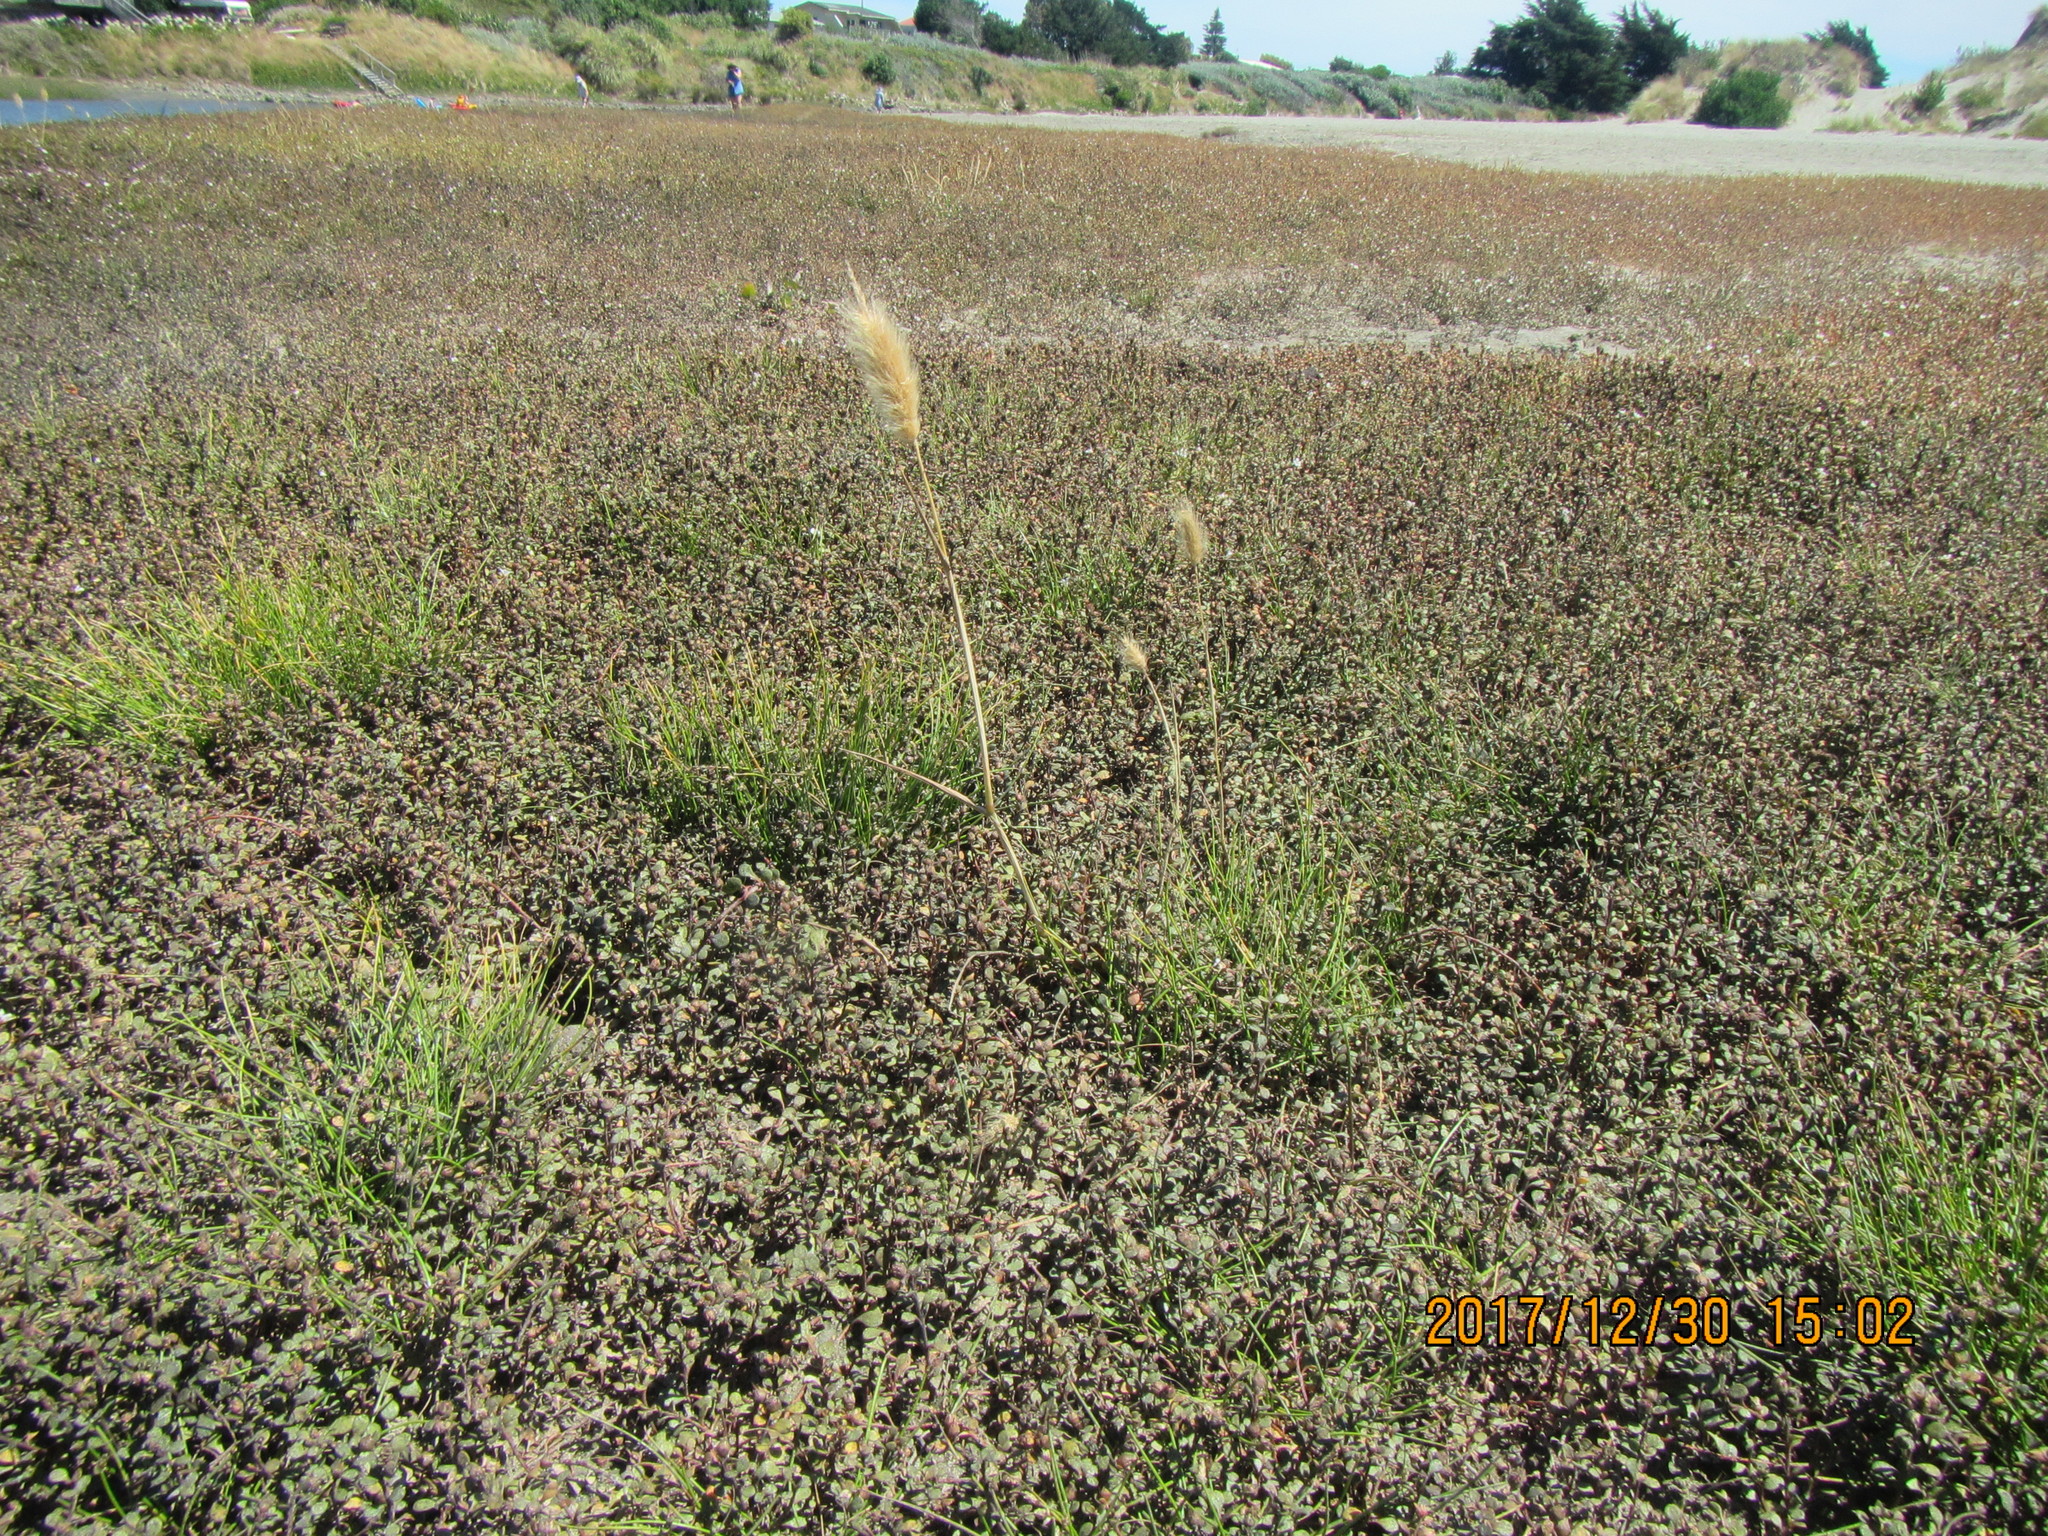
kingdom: Plantae
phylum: Tracheophyta
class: Liliopsida
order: Poales
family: Poaceae
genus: Lagurus
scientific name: Lagurus ovatus
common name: Hare's-tail
